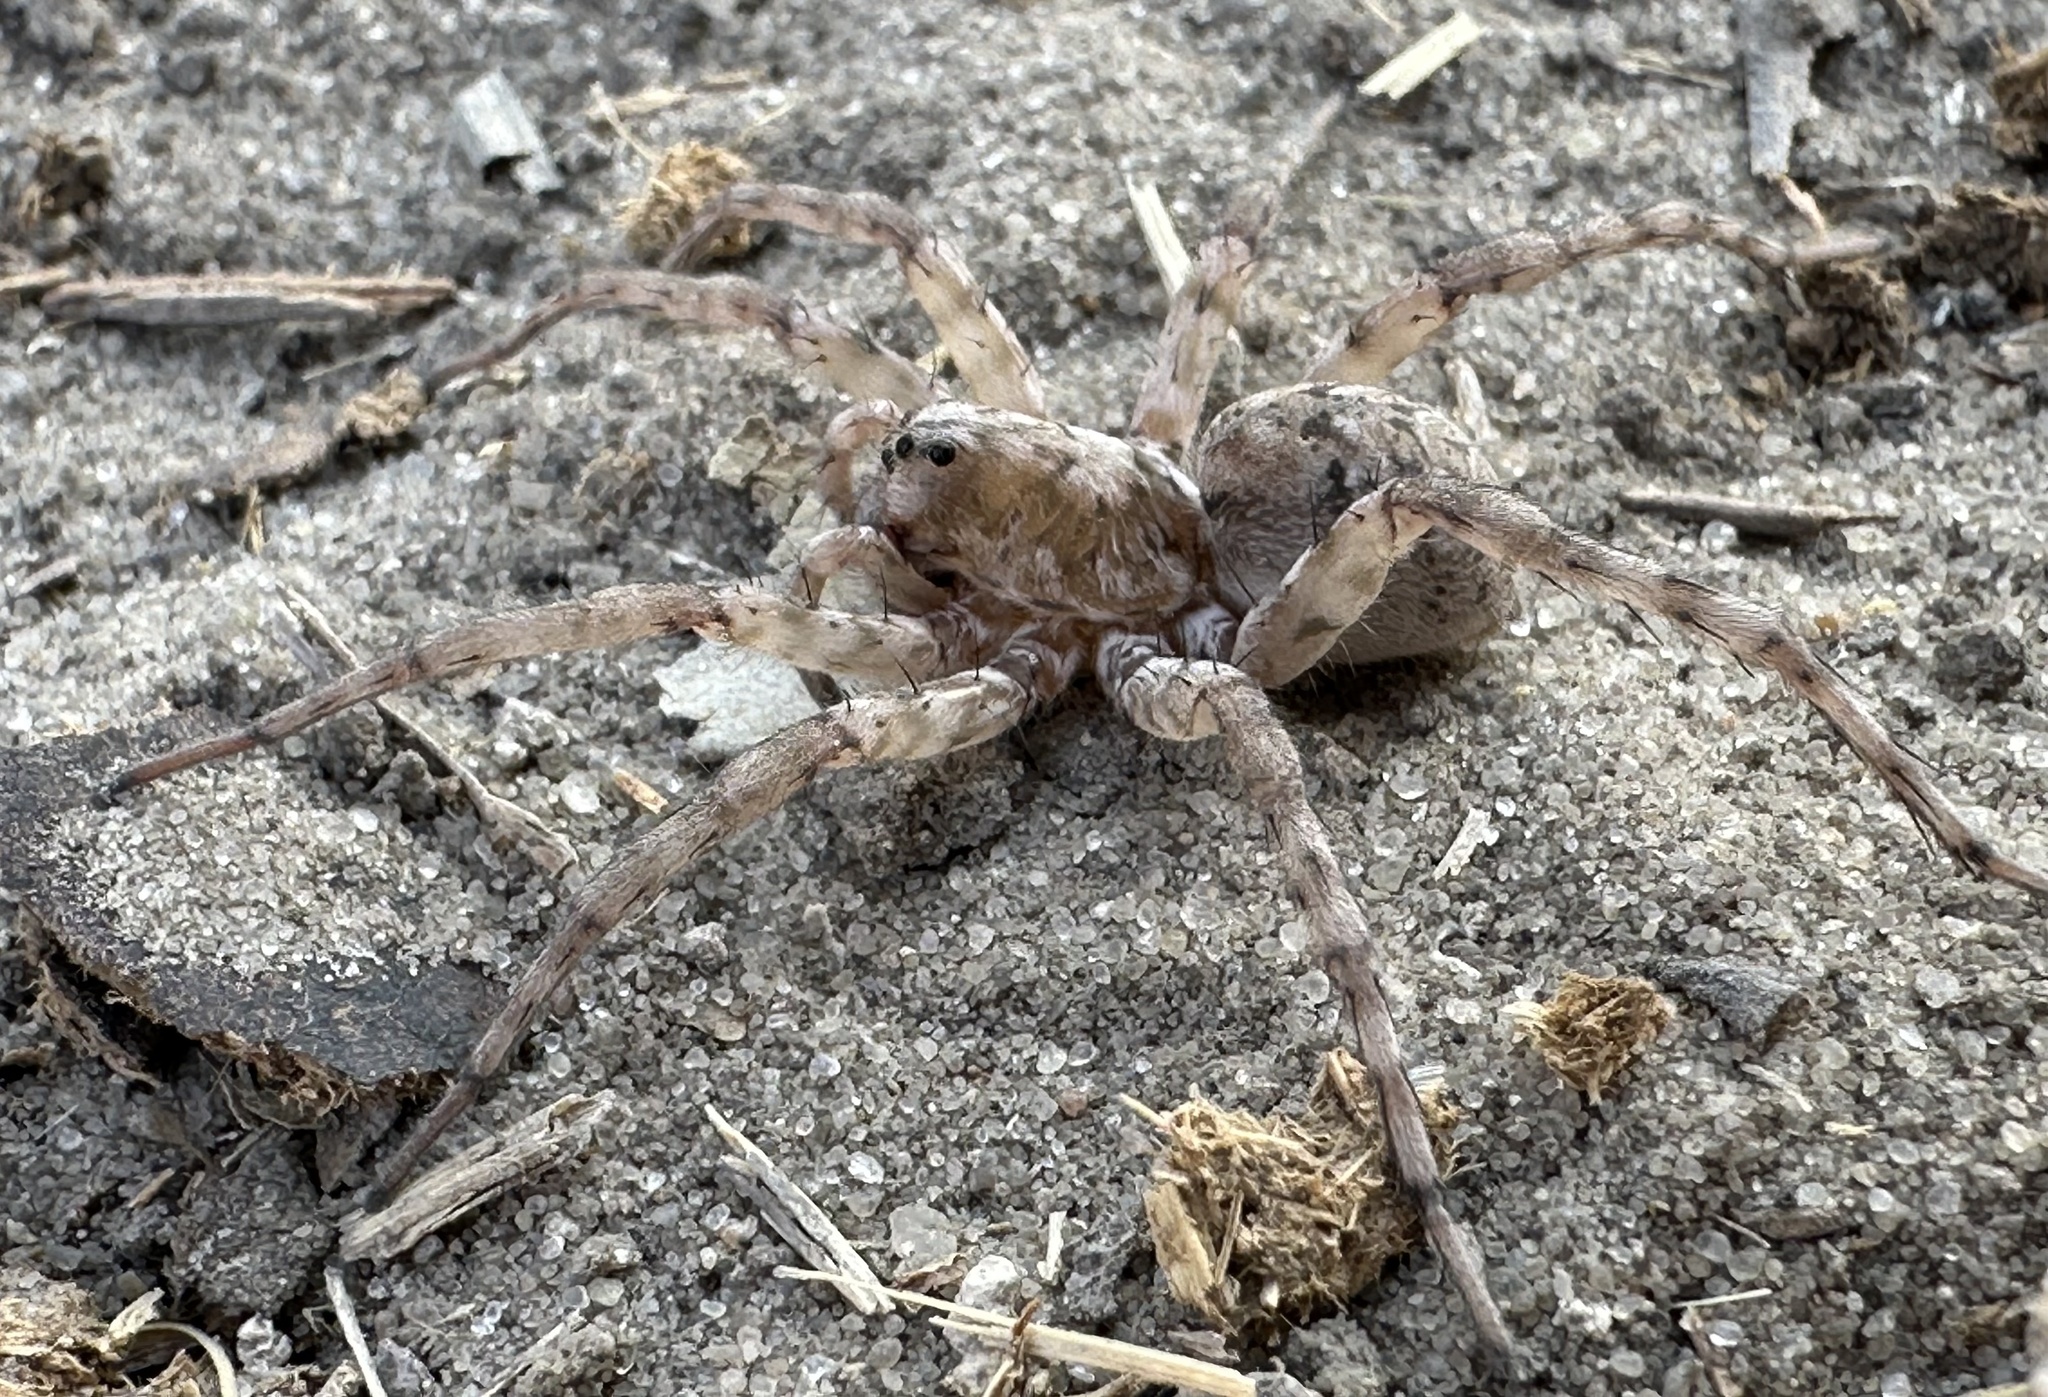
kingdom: Animalia
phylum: Arthropoda
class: Arachnida
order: Araneae
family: Lycosidae
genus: Ocyale
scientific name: Ocyale guttata
